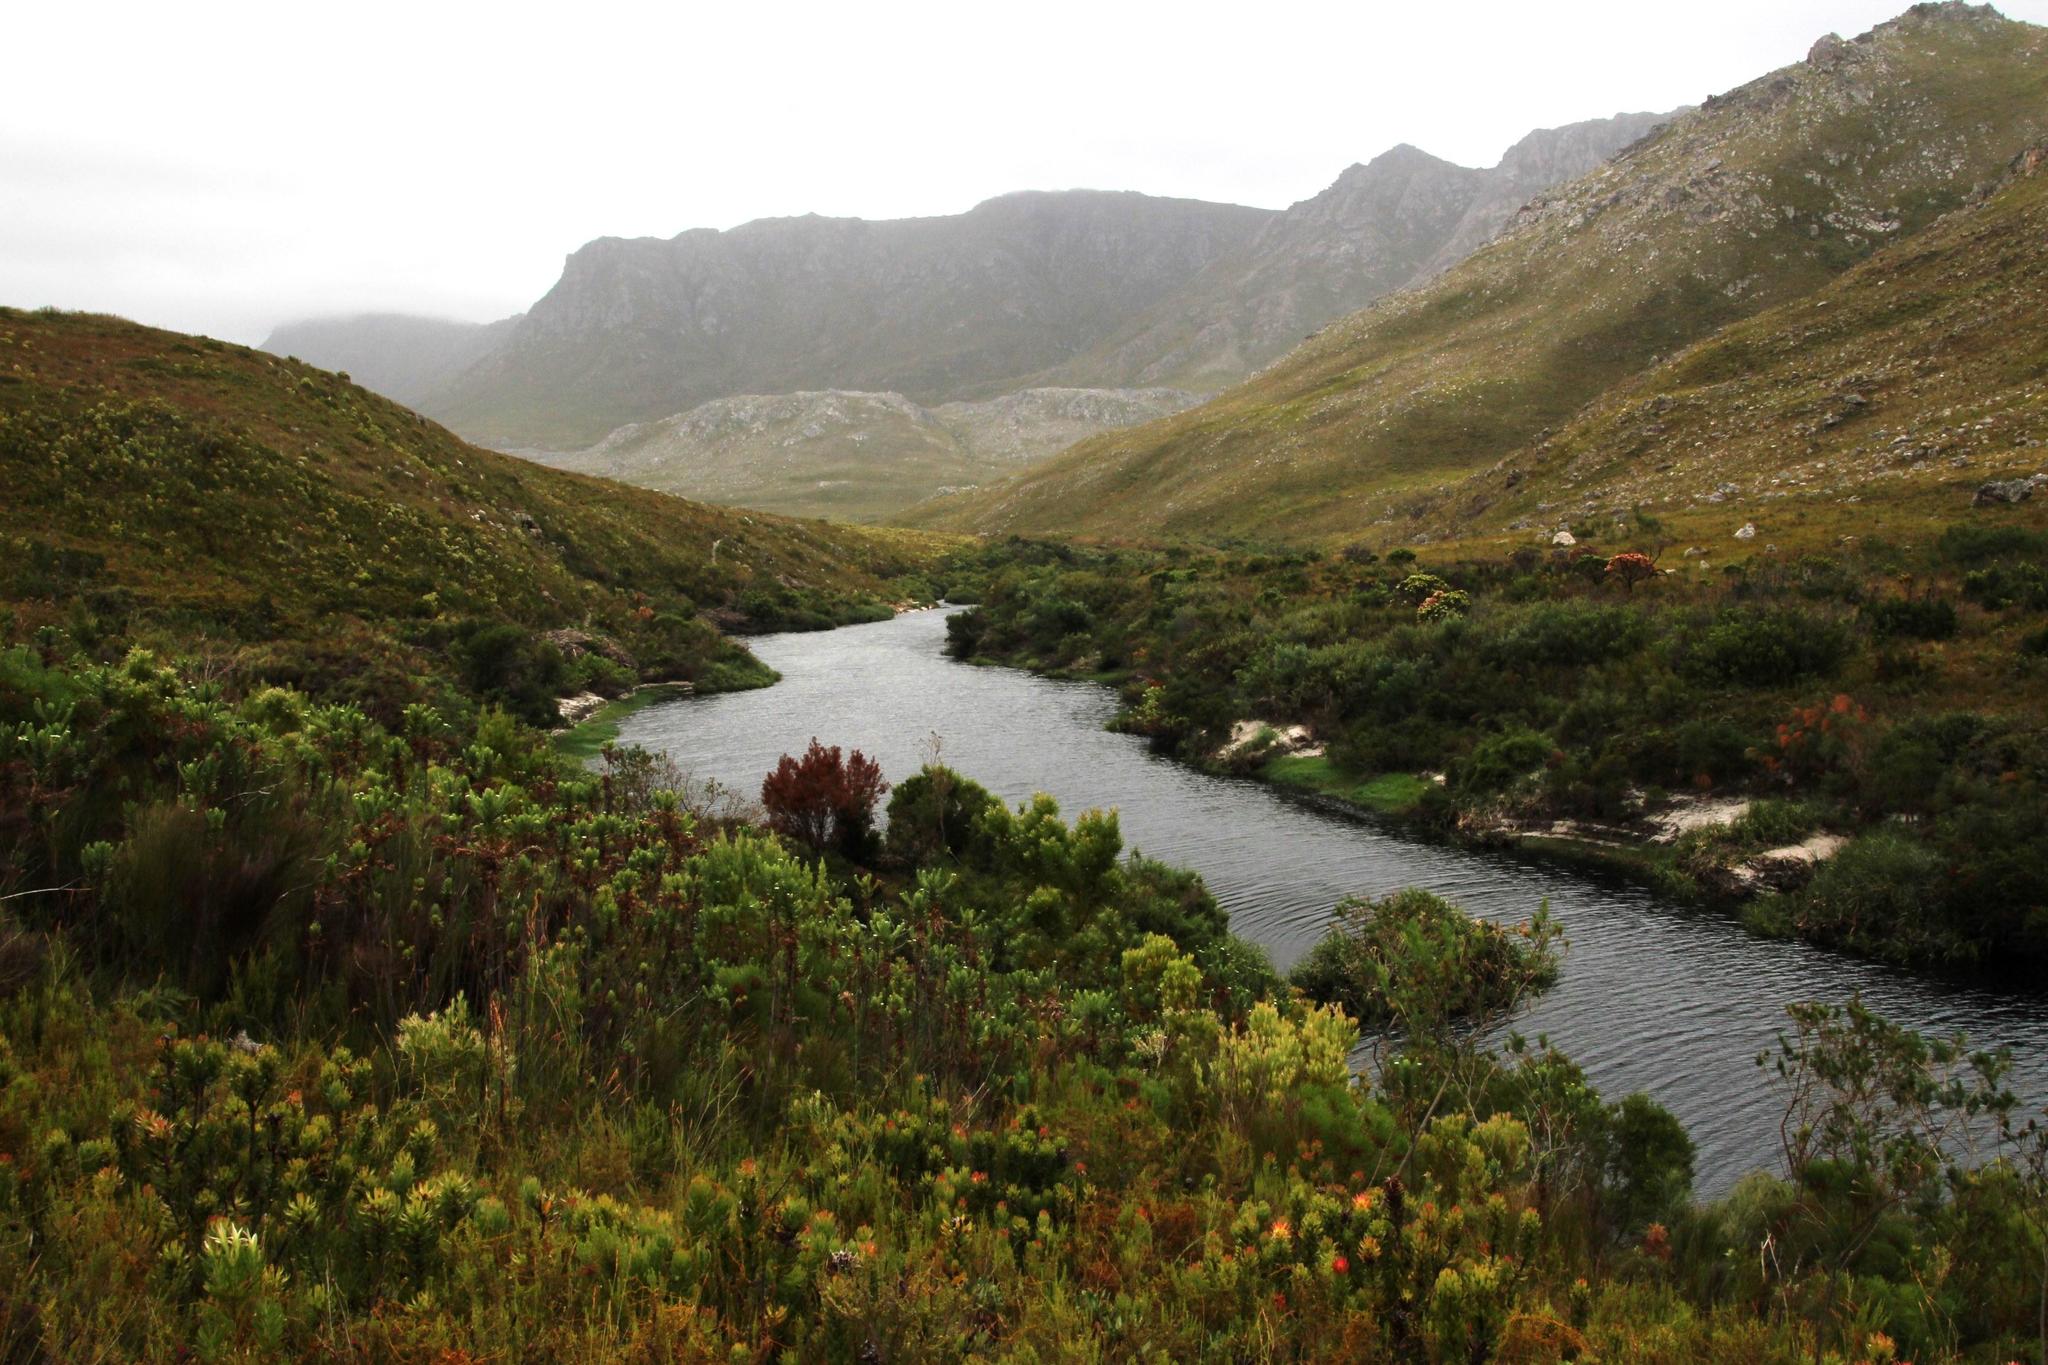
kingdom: Plantae
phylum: Tracheophyta
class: Magnoliopsida
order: Proteales
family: Proteaceae
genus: Mimetes
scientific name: Mimetes cucullatus
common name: Common pagoda
